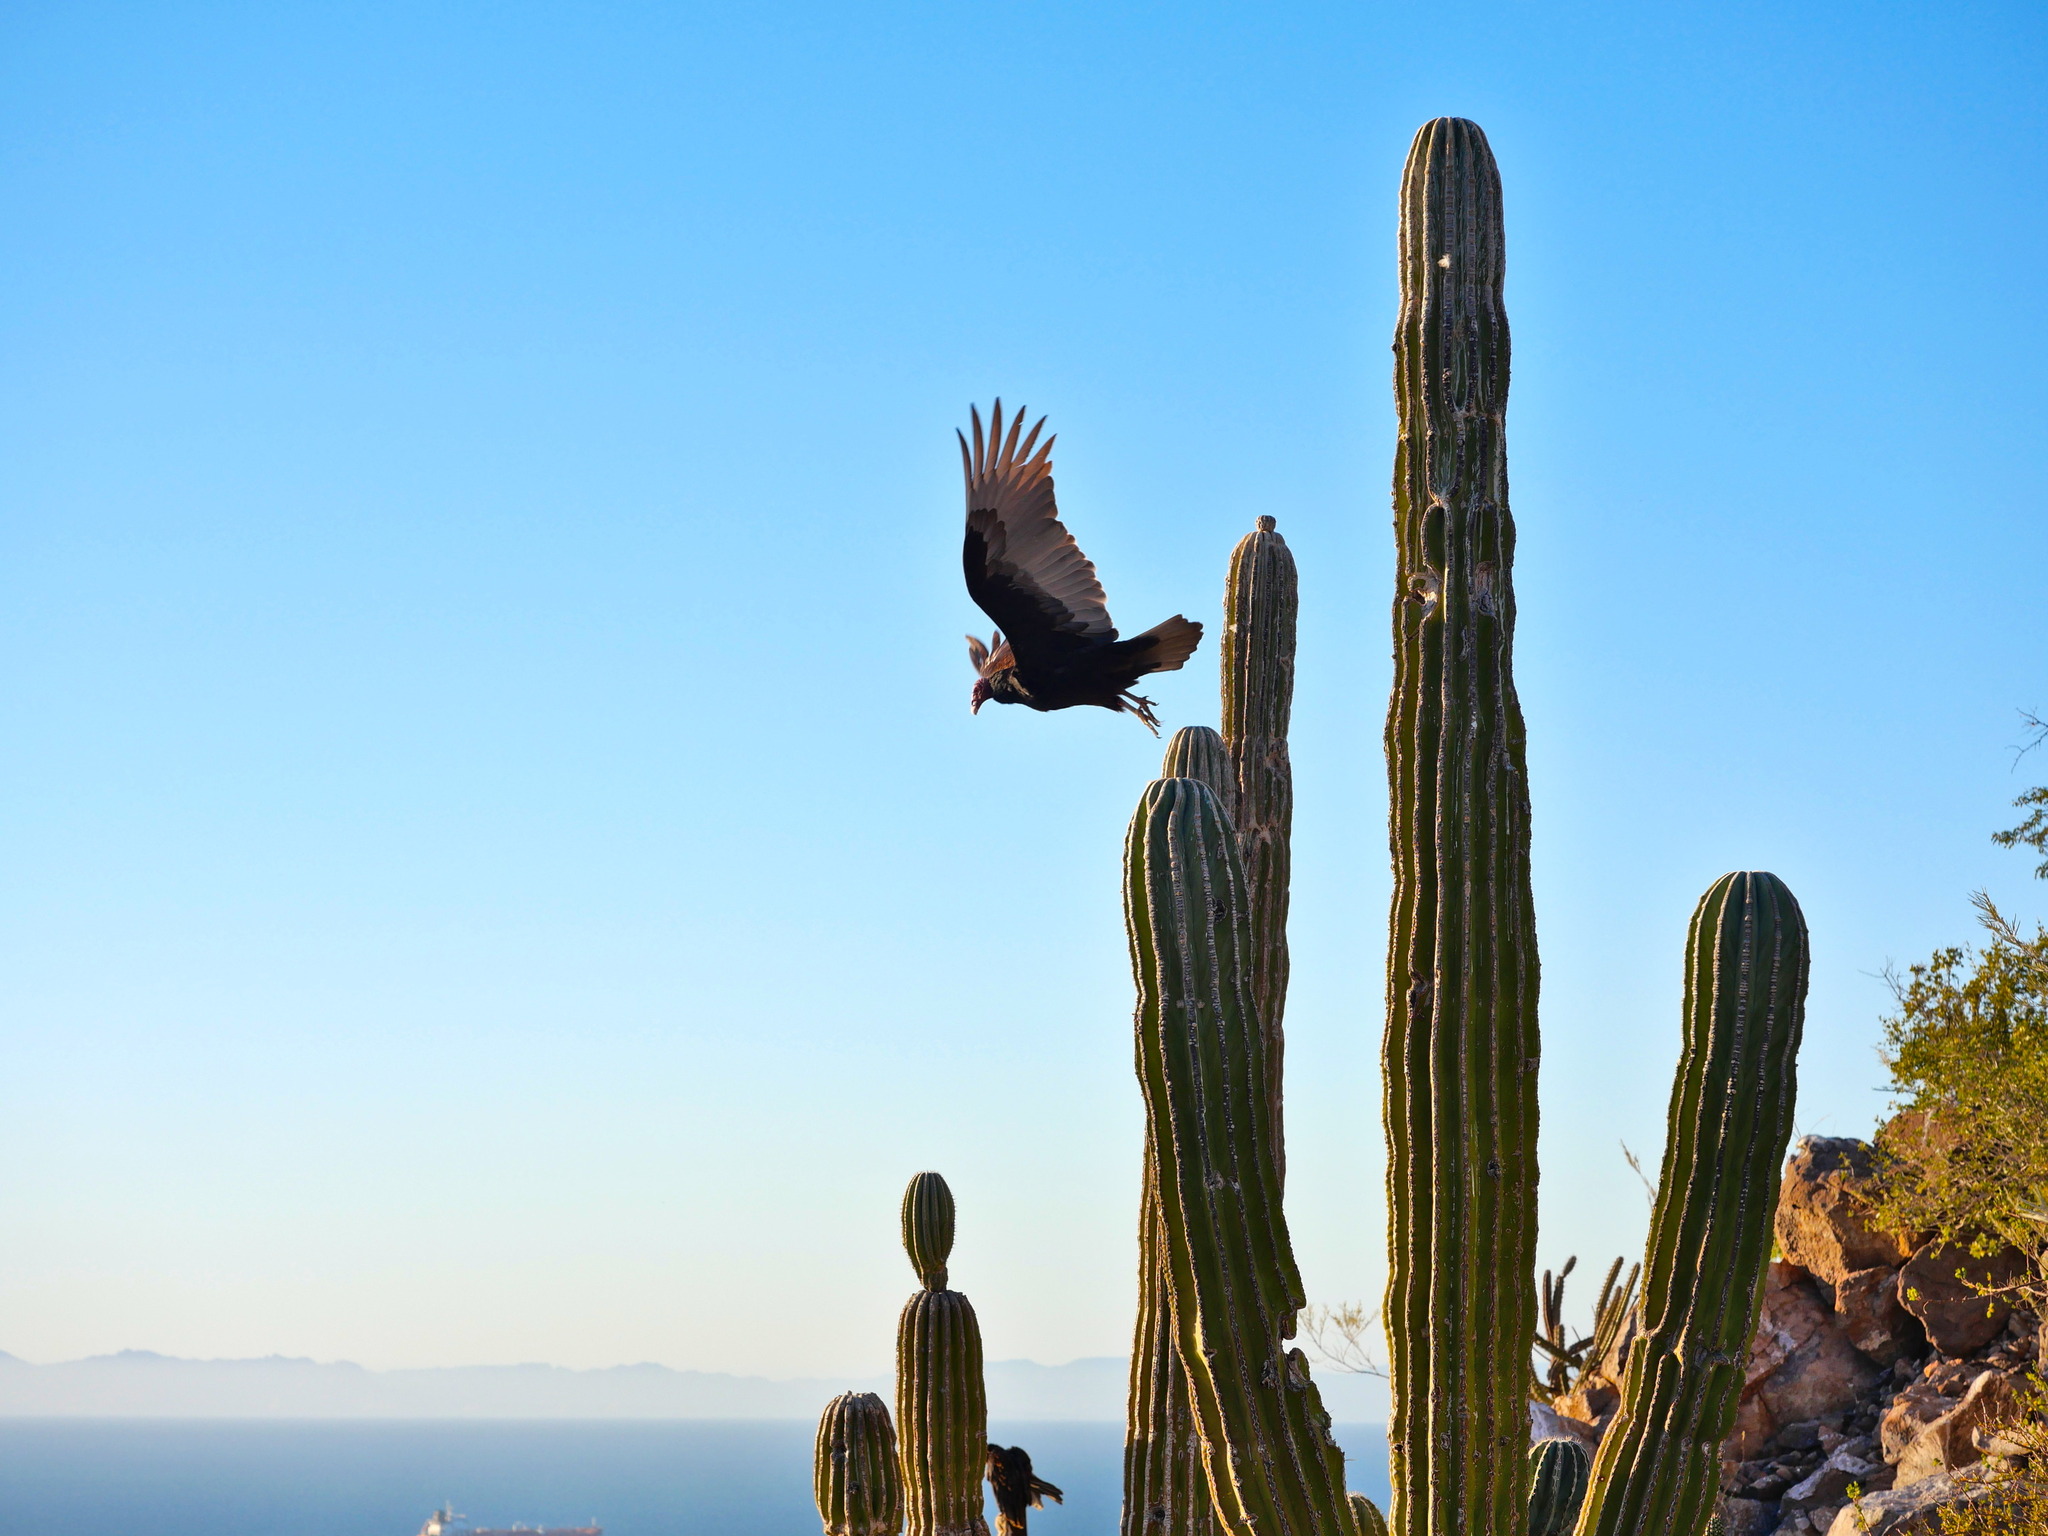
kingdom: Animalia
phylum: Chordata
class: Aves
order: Accipitriformes
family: Cathartidae
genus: Cathartes
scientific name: Cathartes aura
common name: Turkey vulture
